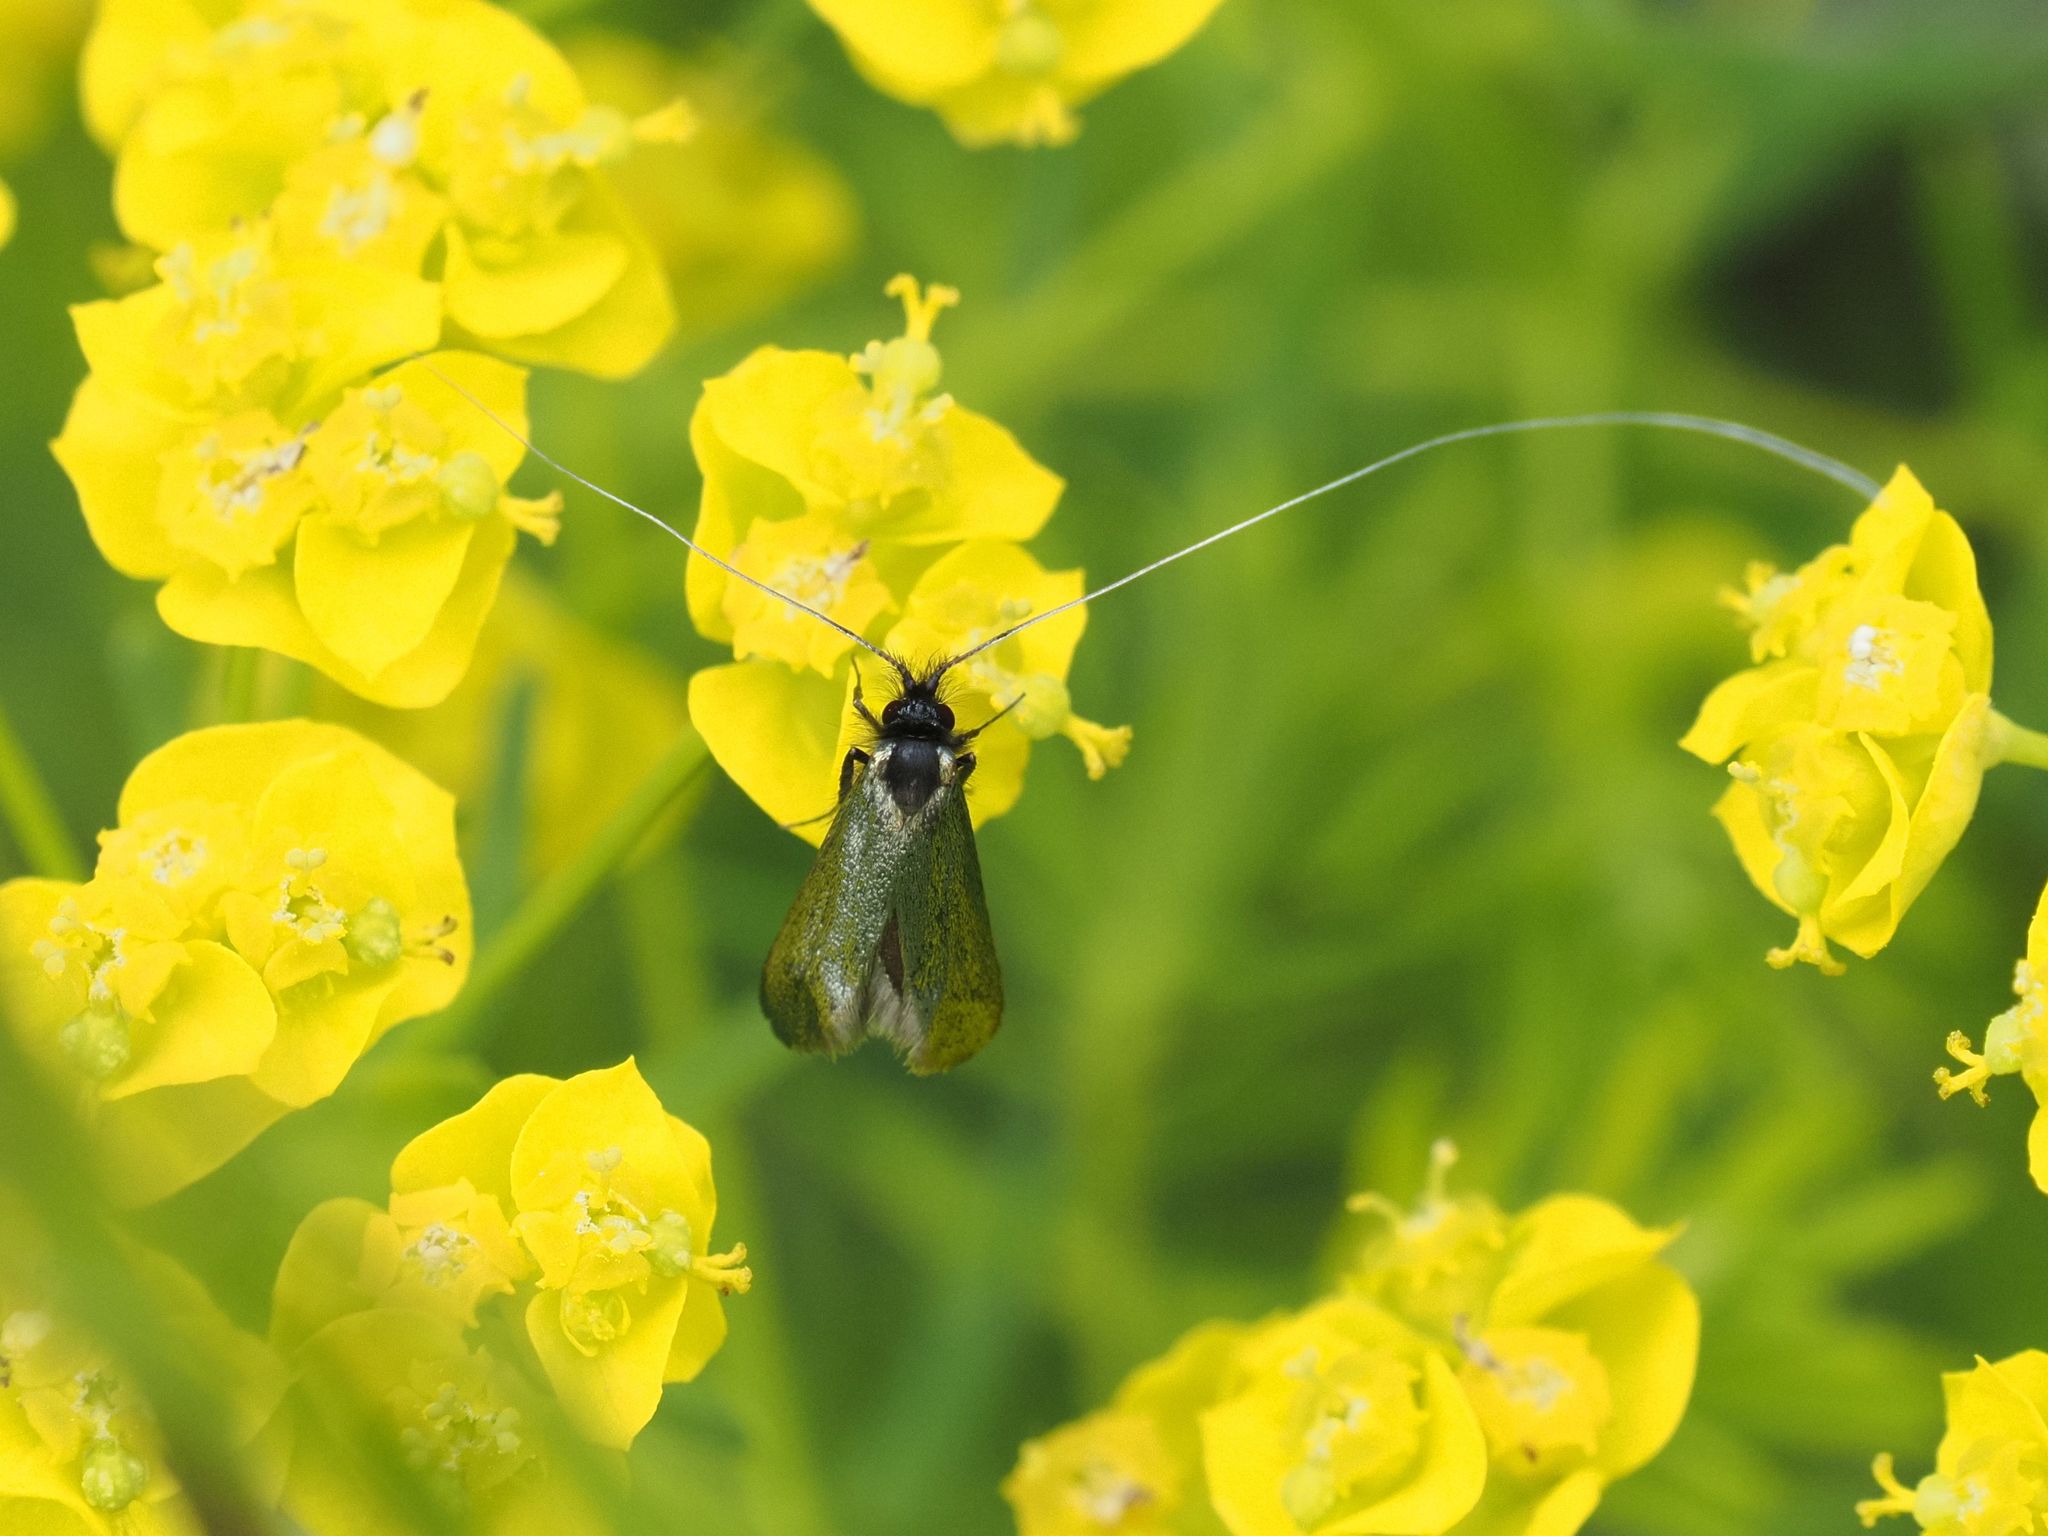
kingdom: Animalia
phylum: Arthropoda
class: Insecta
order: Lepidoptera
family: Adelidae
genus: Adela
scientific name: Adela viridella
